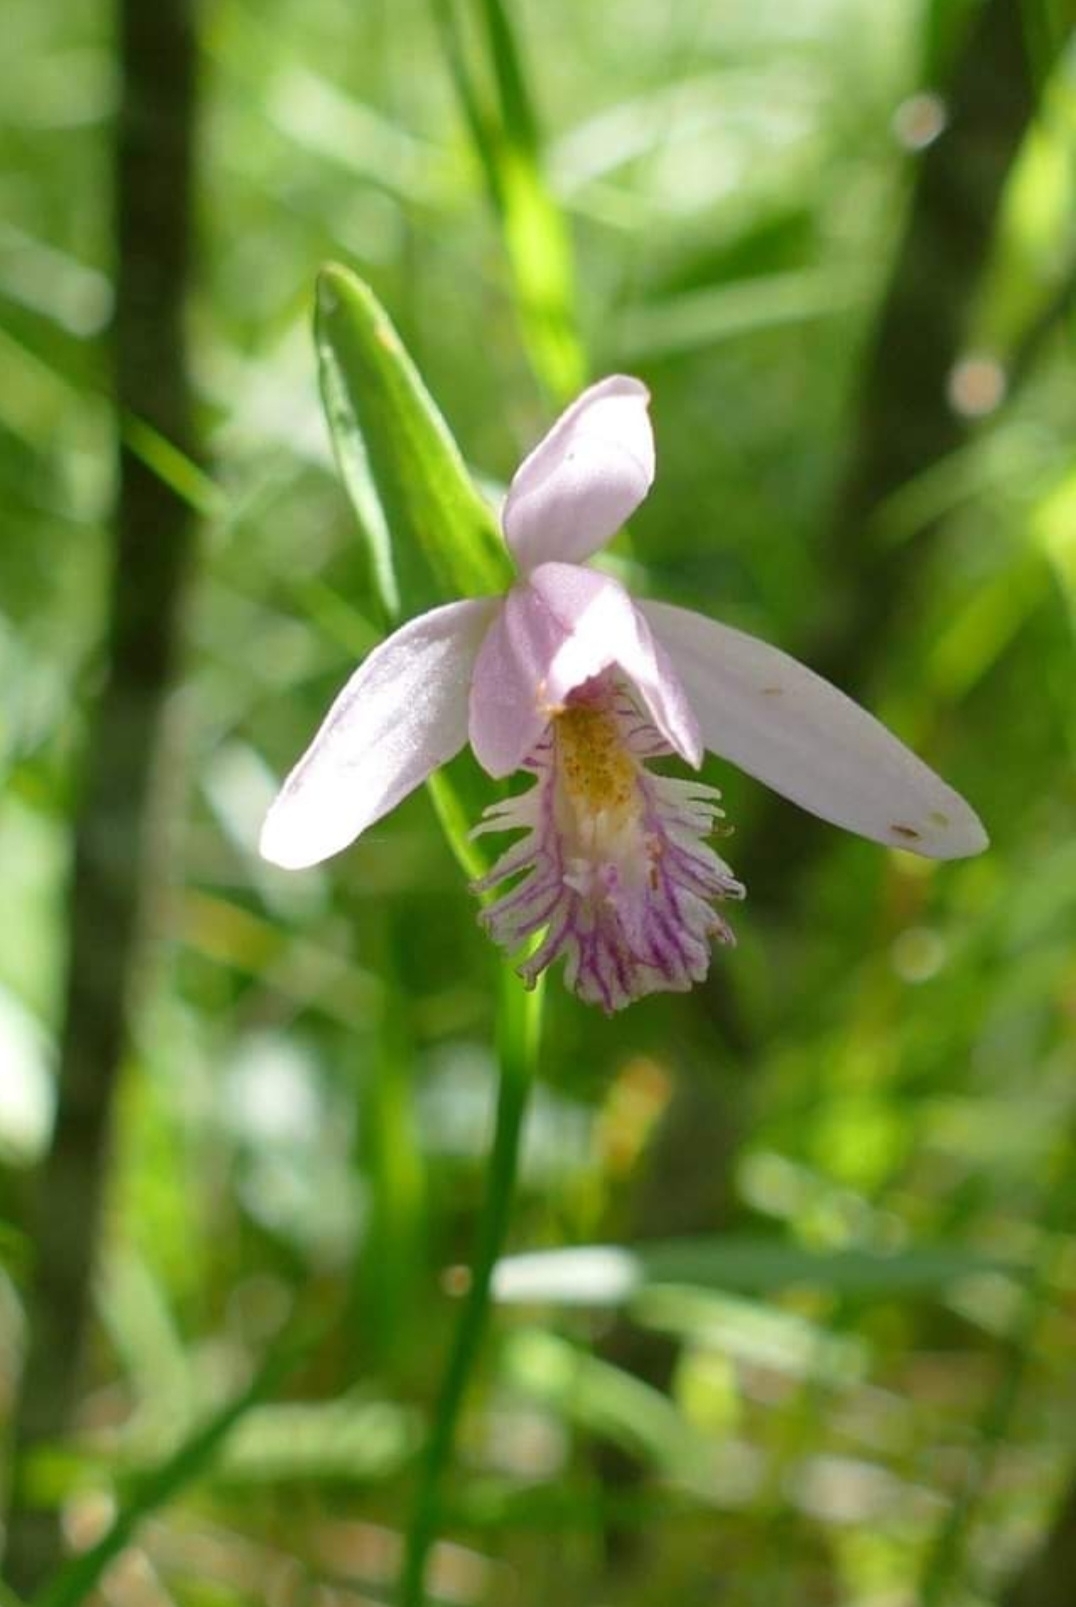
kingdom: Plantae
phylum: Tracheophyta
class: Liliopsida
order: Asparagales
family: Orchidaceae
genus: Pogonia
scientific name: Pogonia ophioglossoides
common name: Rose pogonia
